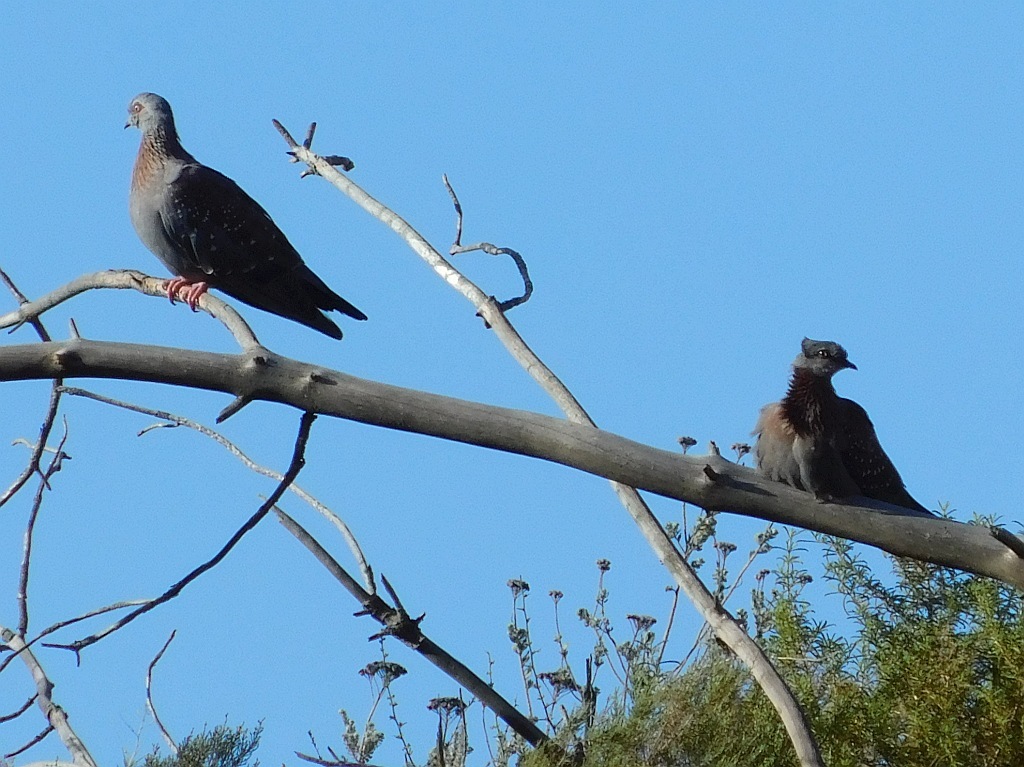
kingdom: Animalia
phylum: Chordata
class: Aves
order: Columbiformes
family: Columbidae
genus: Columba
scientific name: Columba guinea
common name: Speckled pigeon
